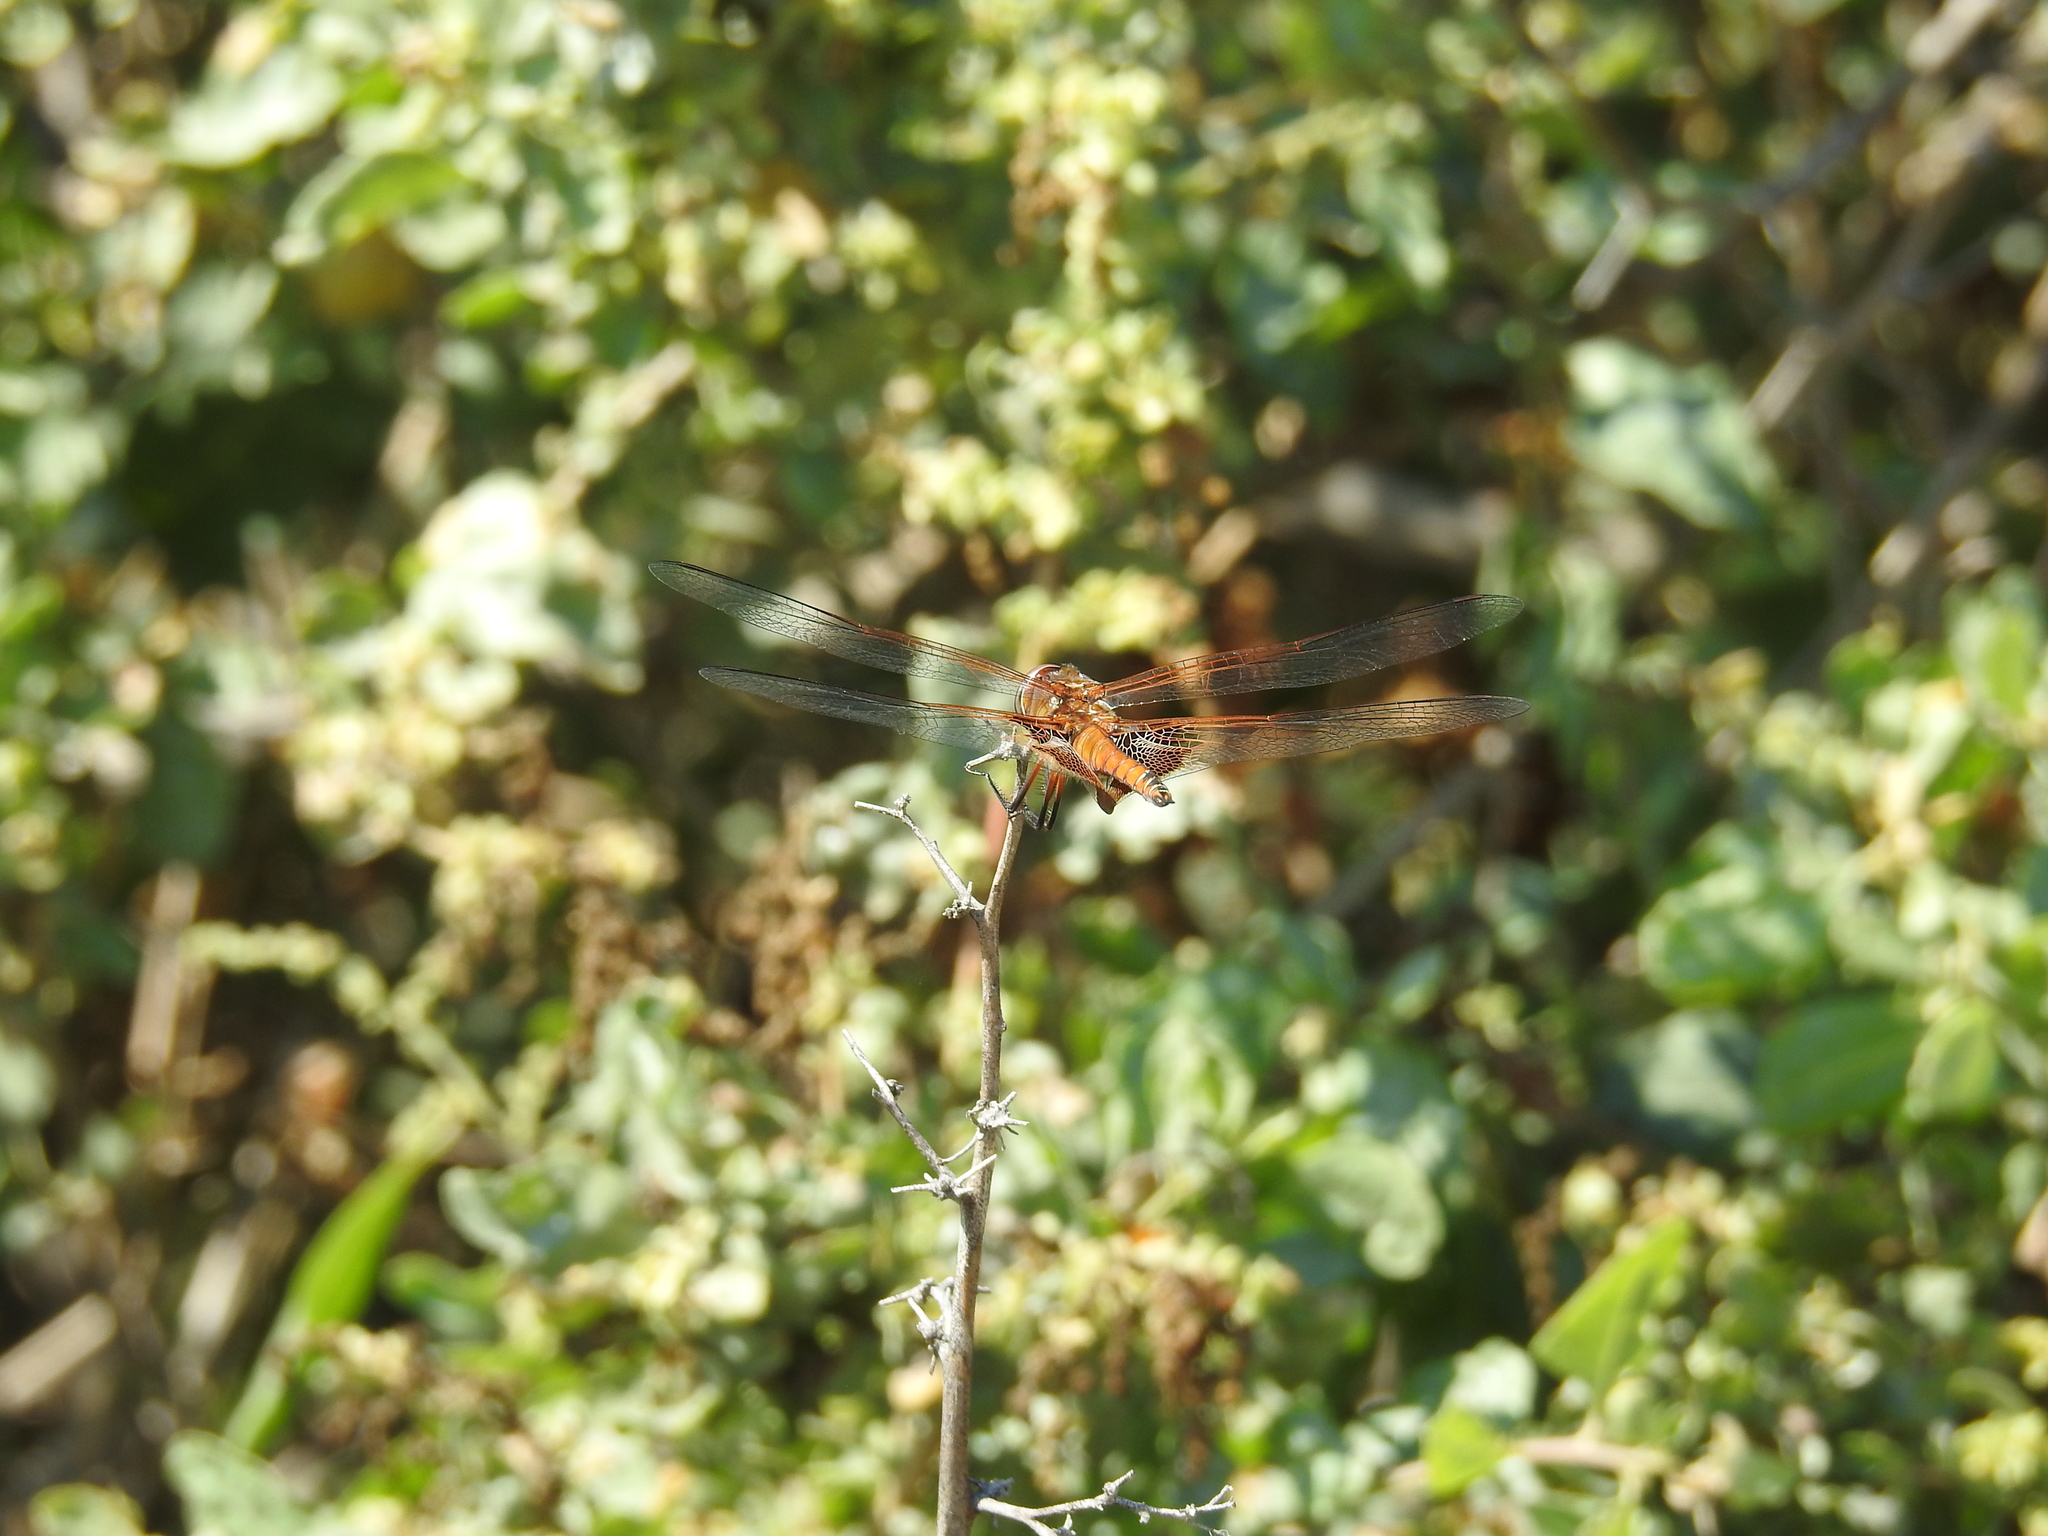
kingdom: Animalia
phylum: Arthropoda
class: Insecta
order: Odonata
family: Libellulidae
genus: Tramea
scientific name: Tramea onusta
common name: Red saddlebags
